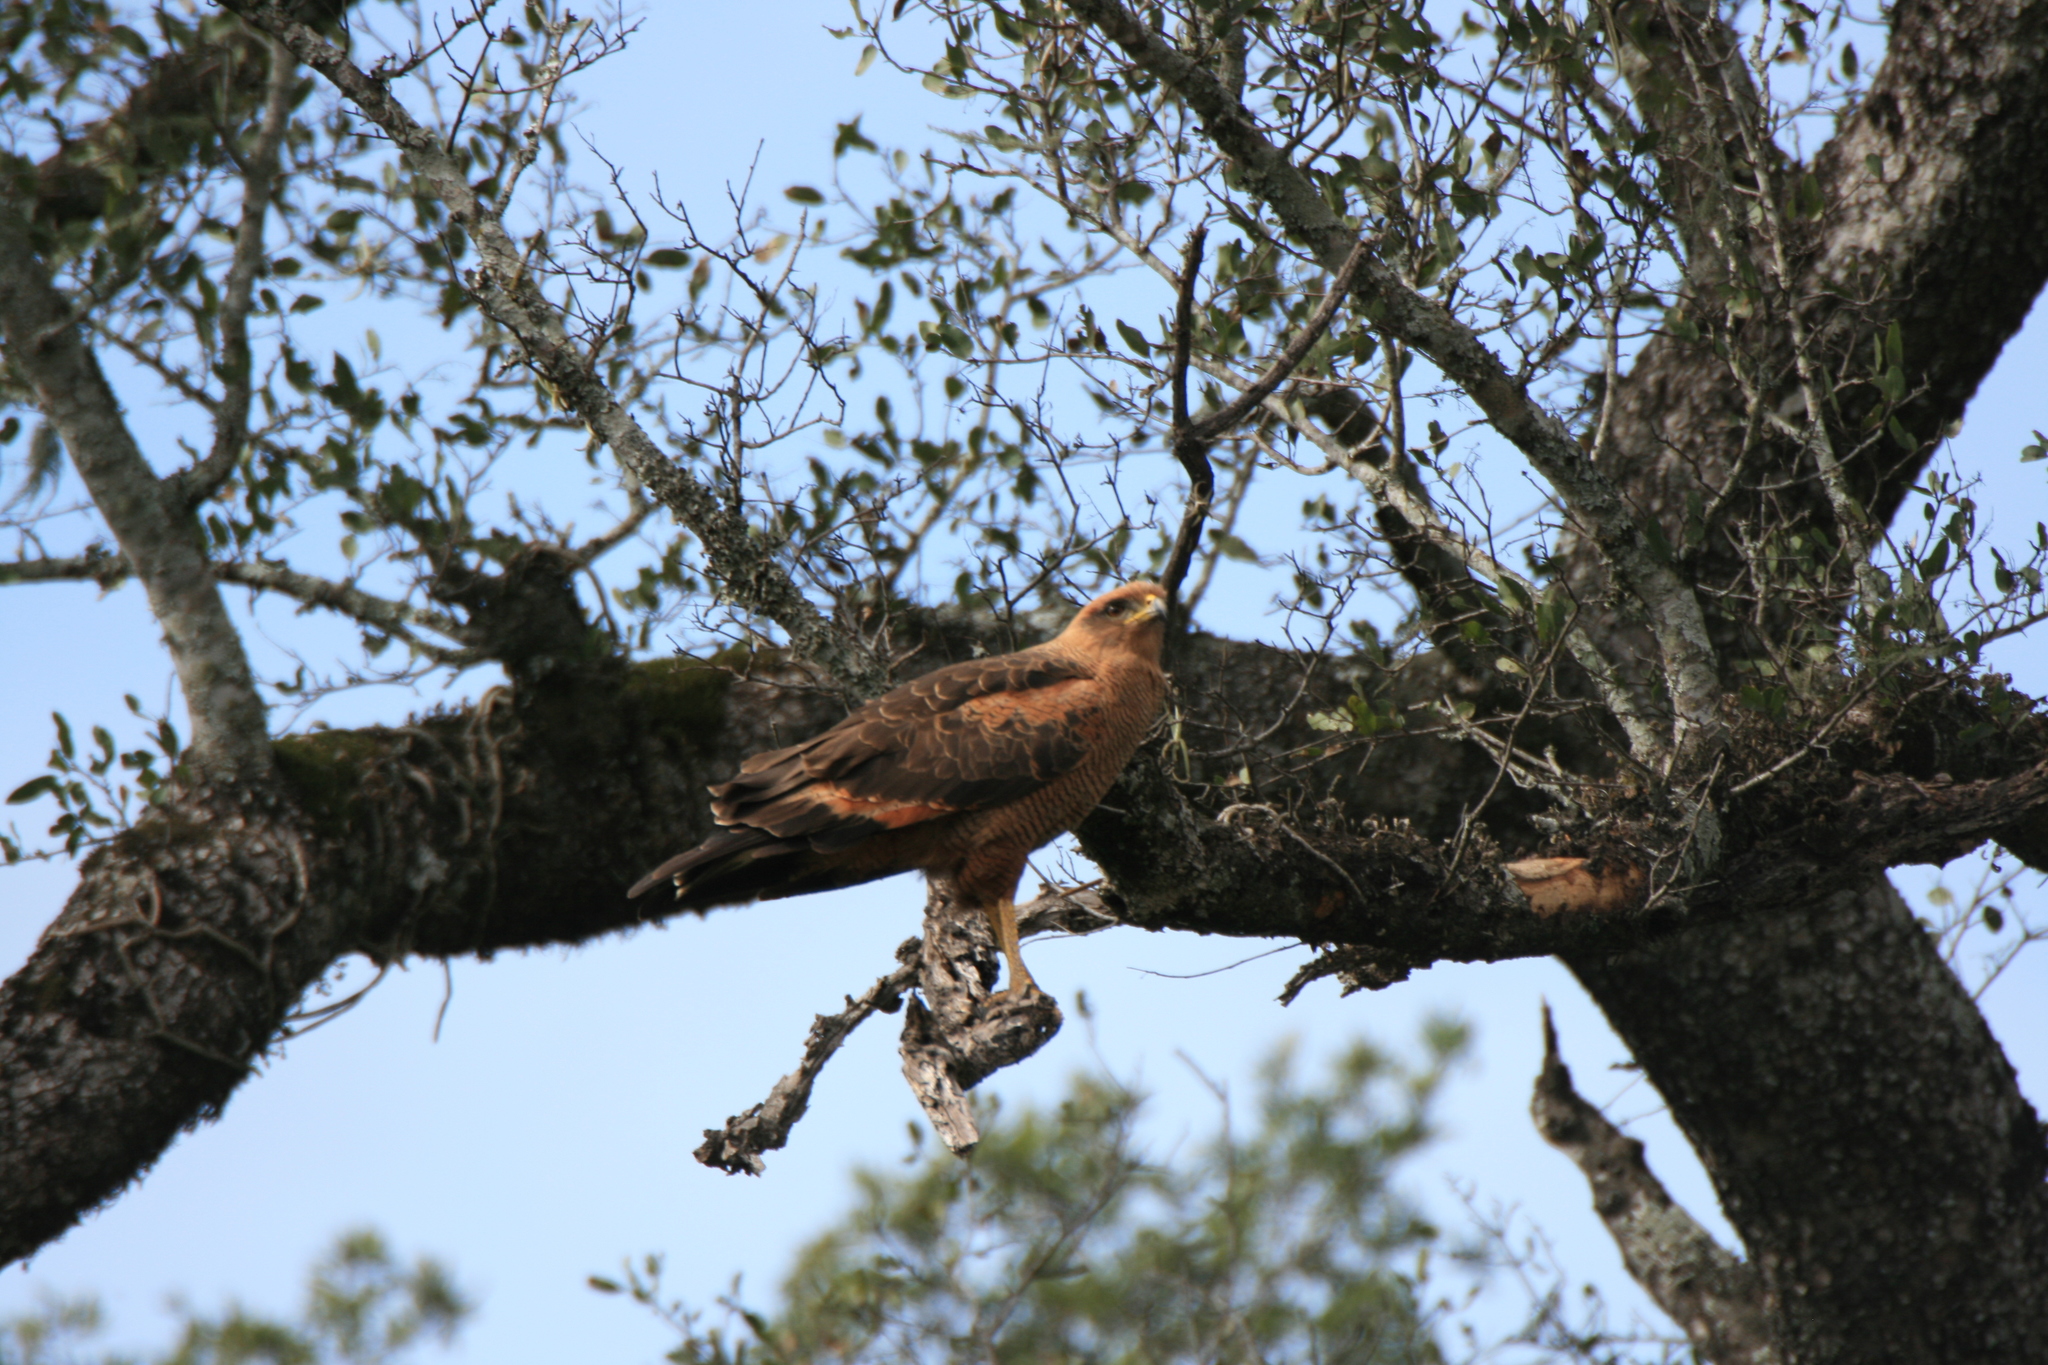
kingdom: Animalia
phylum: Chordata
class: Aves
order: Accipitriformes
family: Accipitridae
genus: Buteogallus
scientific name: Buteogallus meridionalis
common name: Savanna hawk
